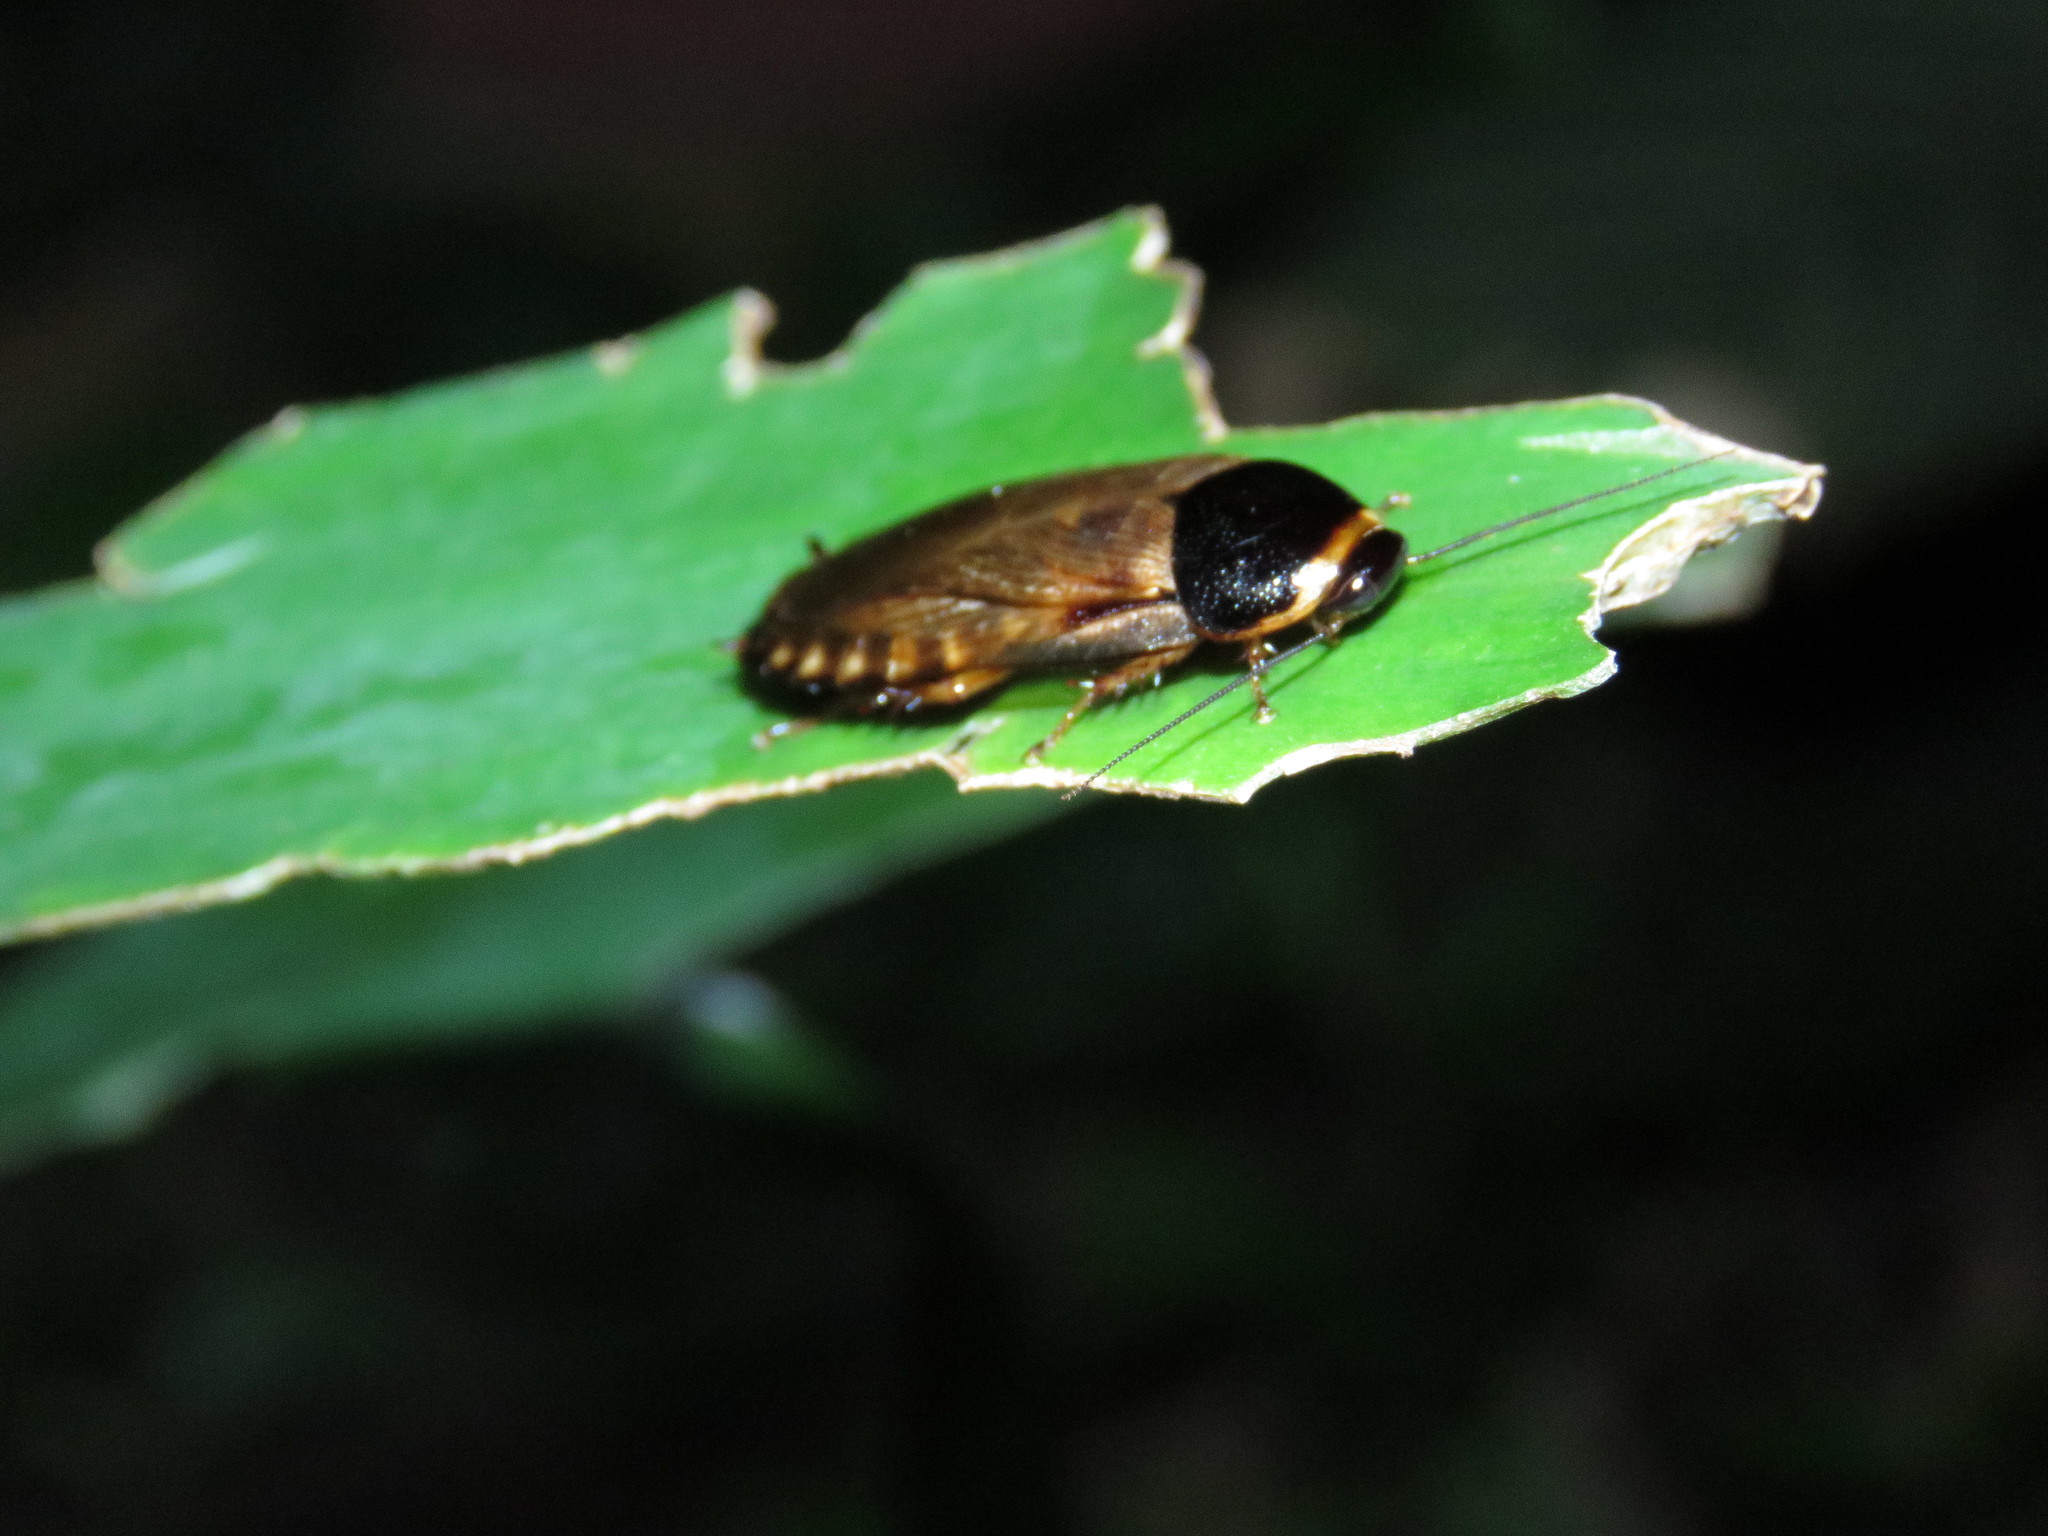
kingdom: Animalia
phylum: Arthropoda
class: Insecta
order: Blattodea
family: Blaberidae
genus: Pycnoscelus
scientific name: Pycnoscelus surinamensis
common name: Surinam cockroach
